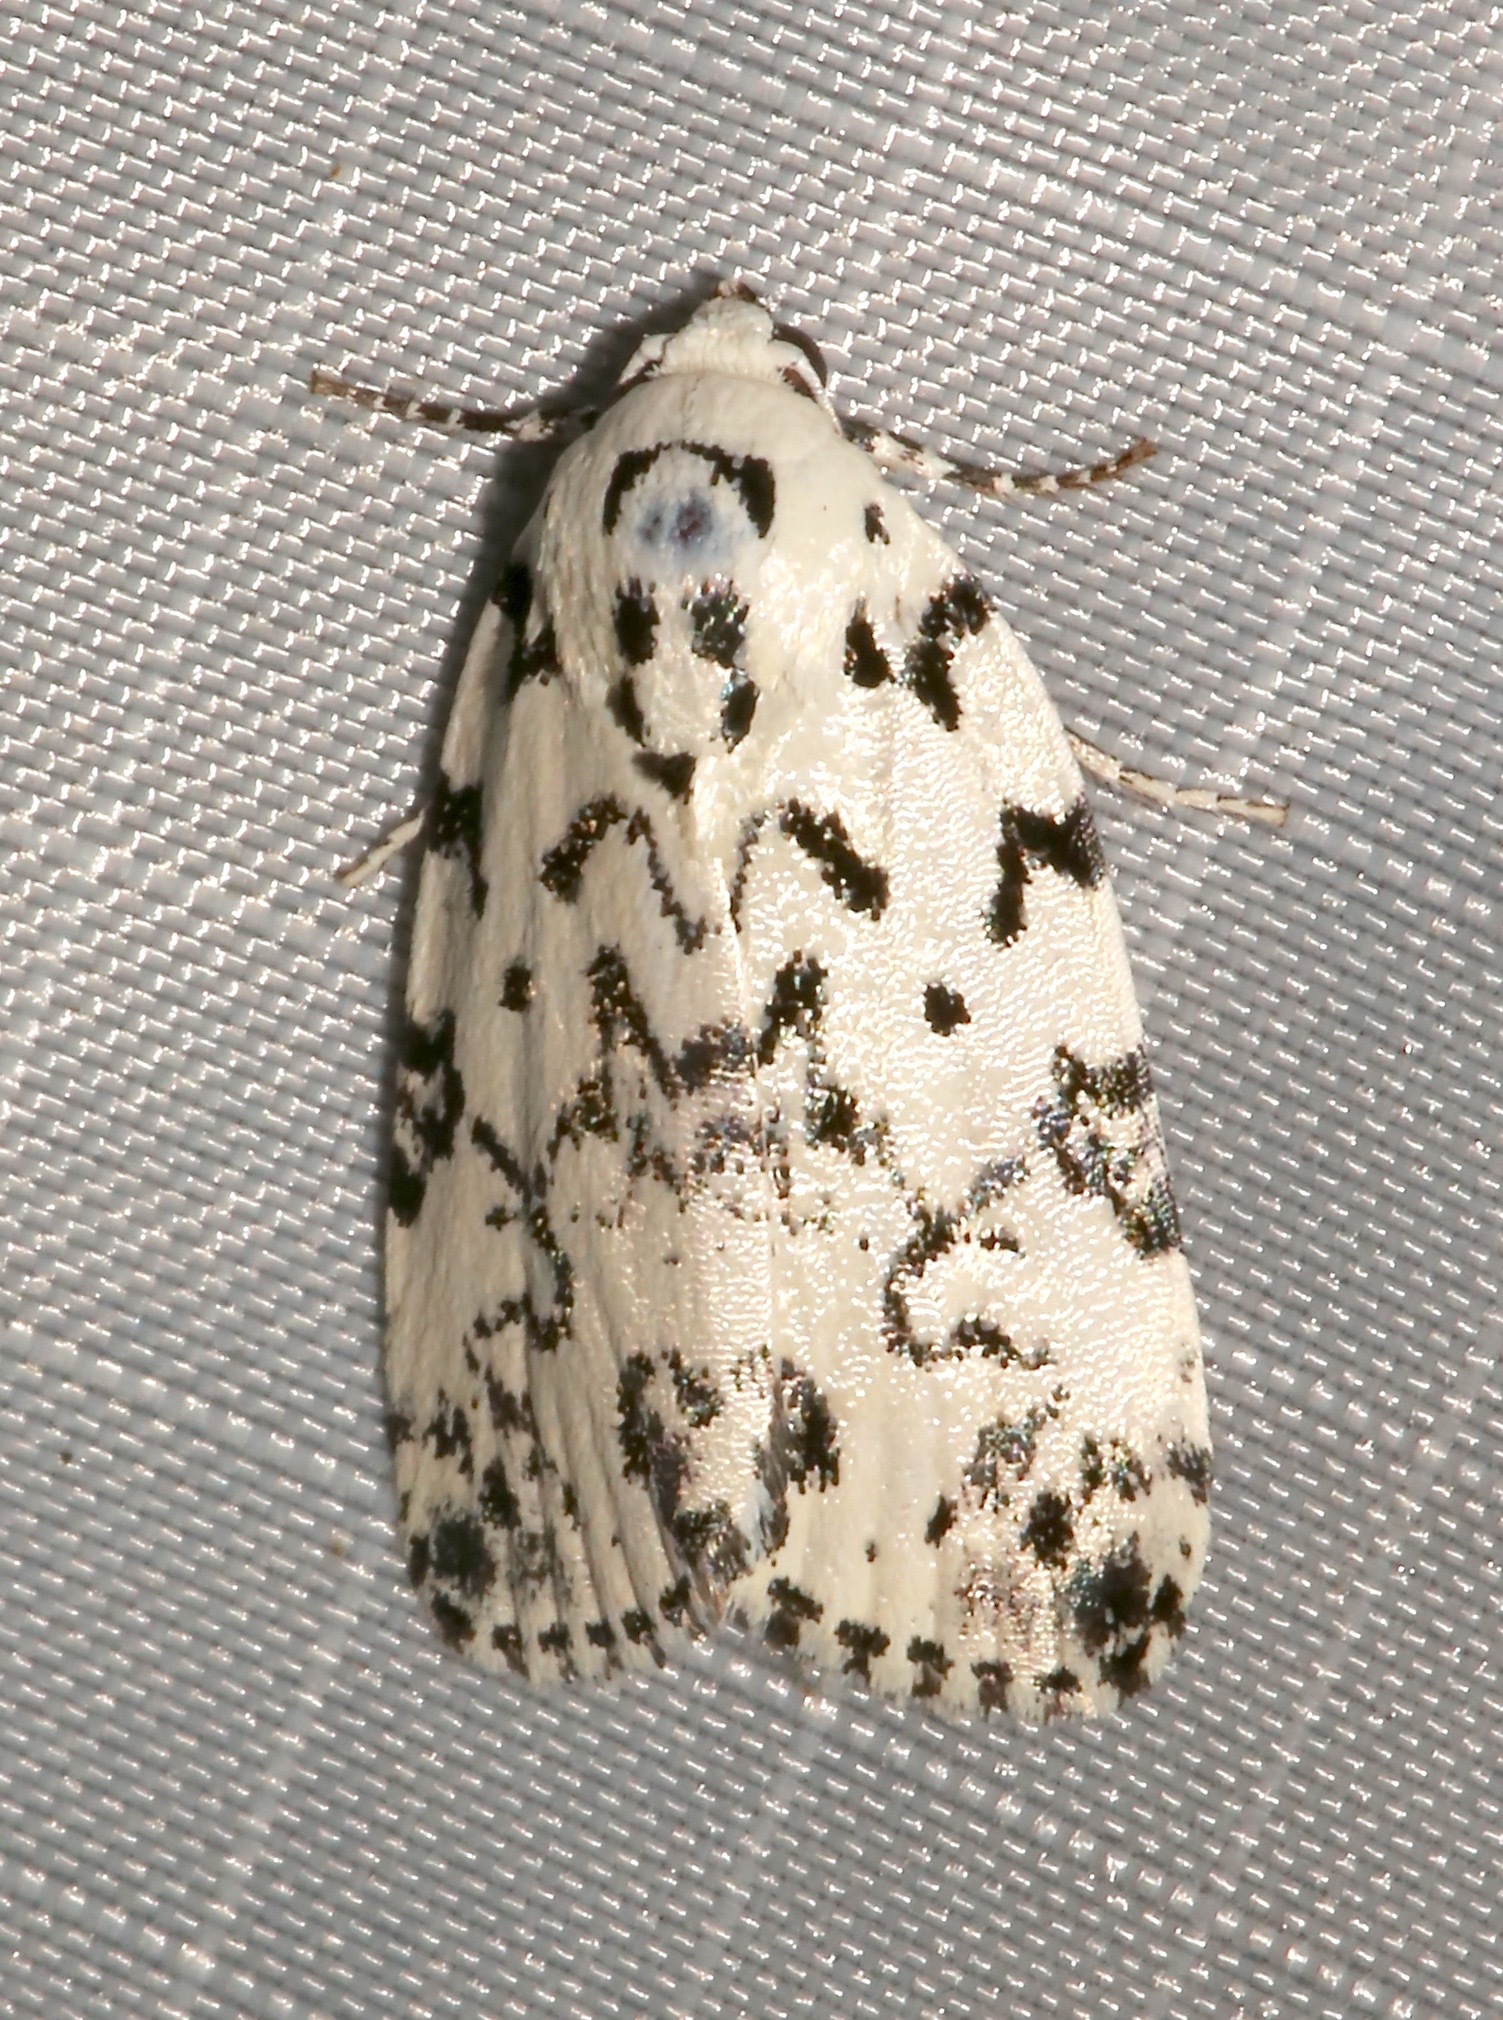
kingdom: Animalia
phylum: Arthropoda
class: Insecta
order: Lepidoptera
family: Noctuidae
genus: Polygrammate
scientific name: Polygrammate hebraeicum
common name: Hebrew moth
